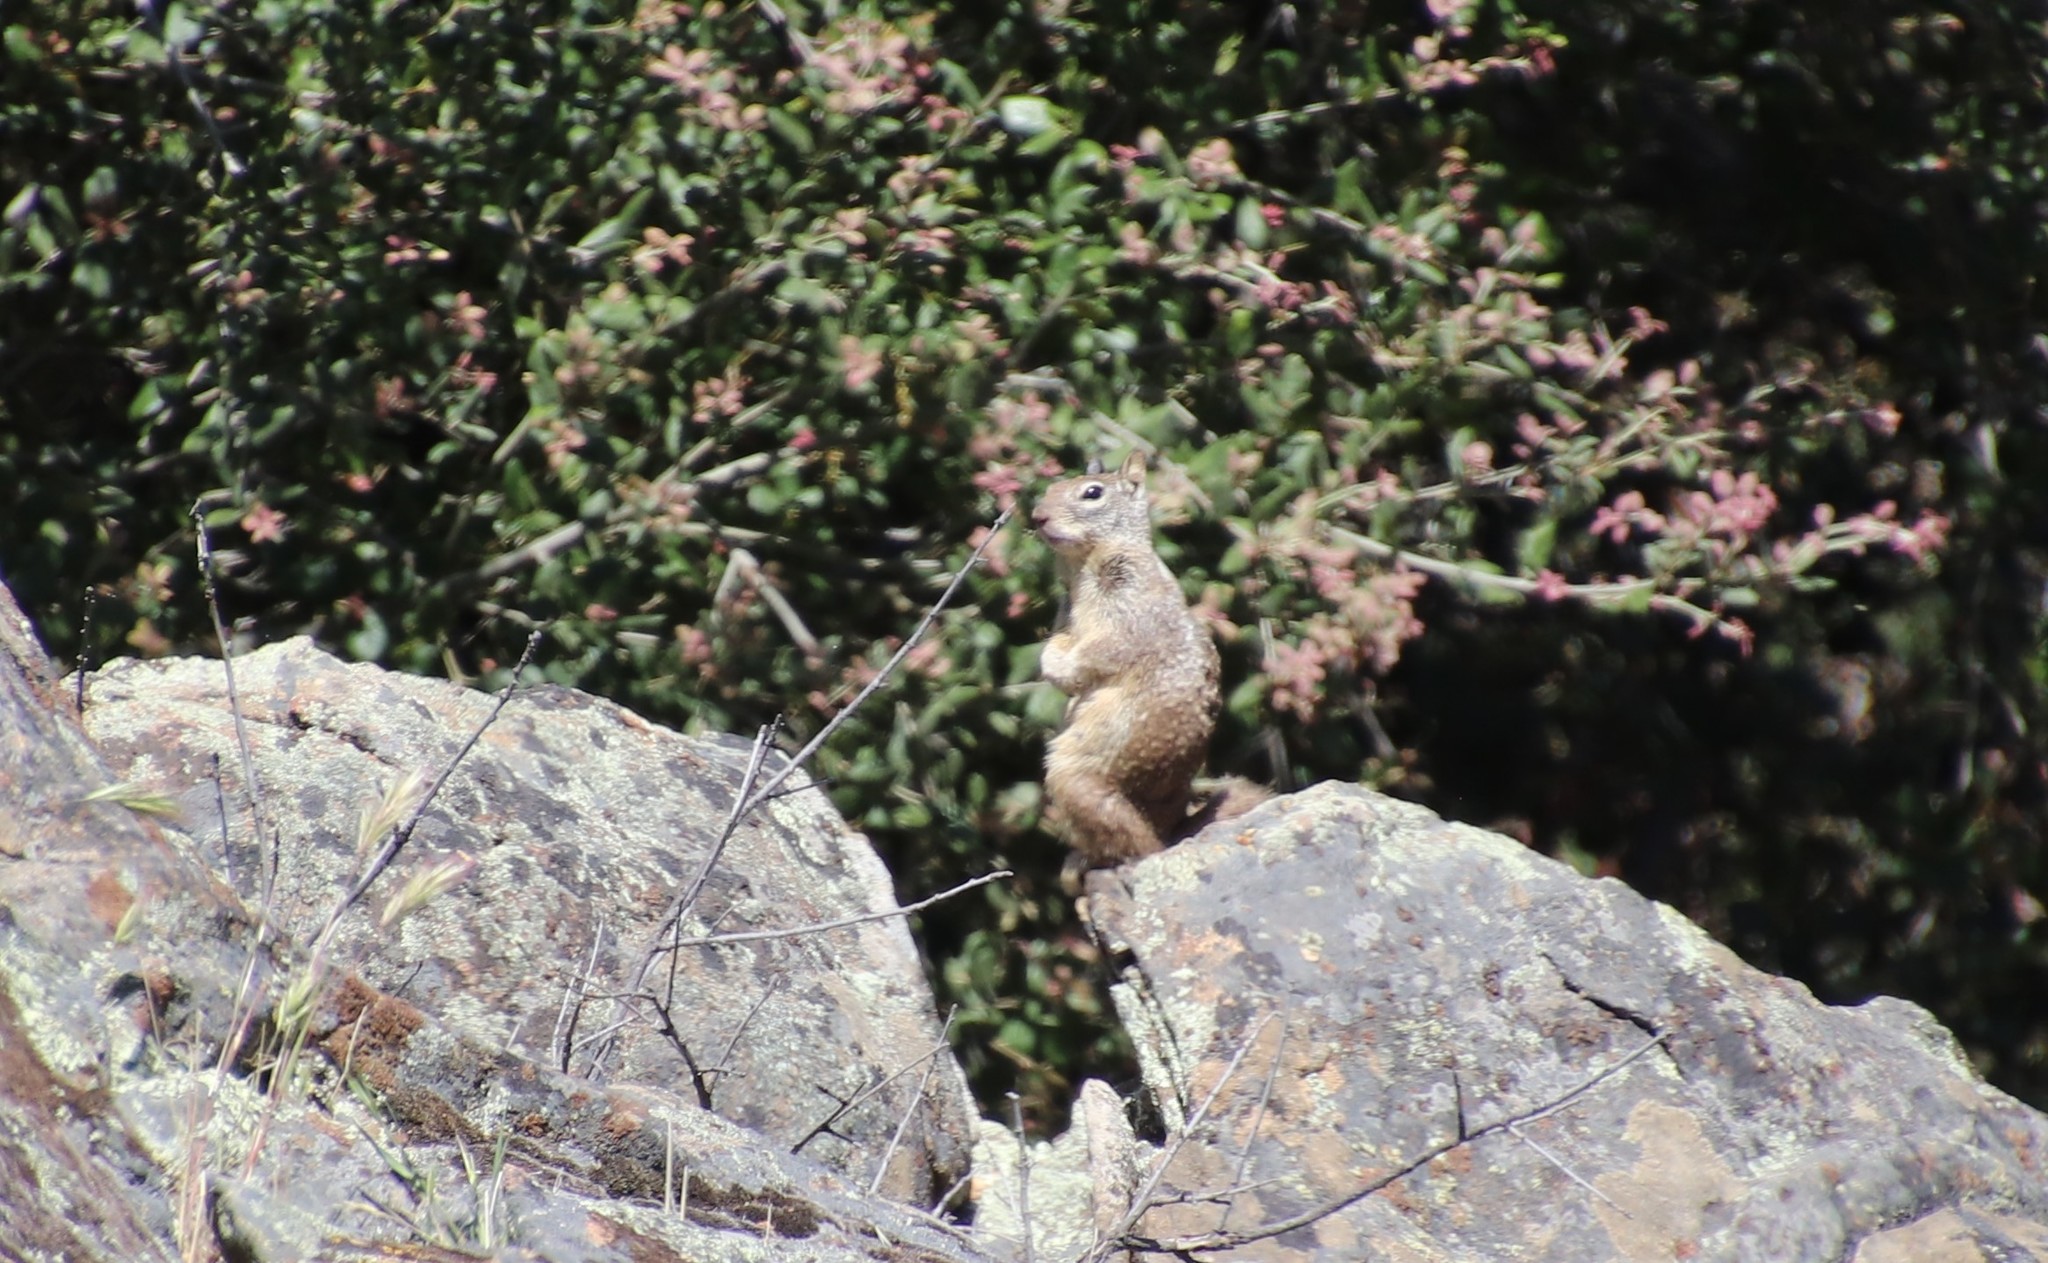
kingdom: Animalia
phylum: Chordata
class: Mammalia
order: Rodentia
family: Sciuridae
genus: Otospermophilus
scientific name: Otospermophilus beecheyi
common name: California ground squirrel
